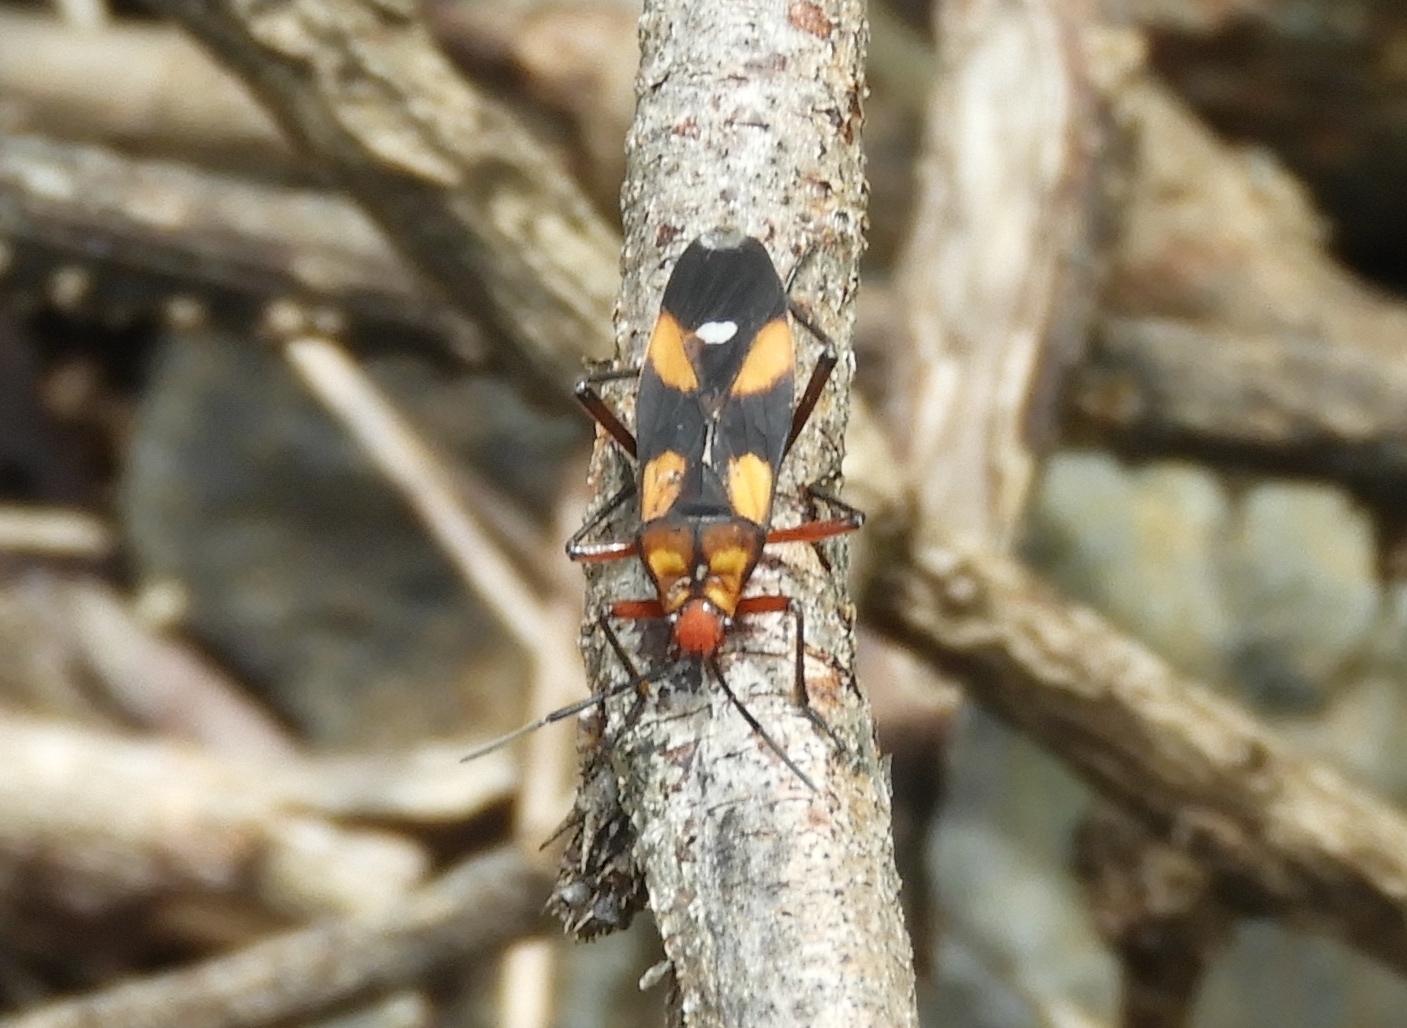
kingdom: Animalia
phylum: Arthropoda
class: Insecta
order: Hemiptera
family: Lygaeidae
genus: Oncopeltus
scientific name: Oncopeltus guttaloides
